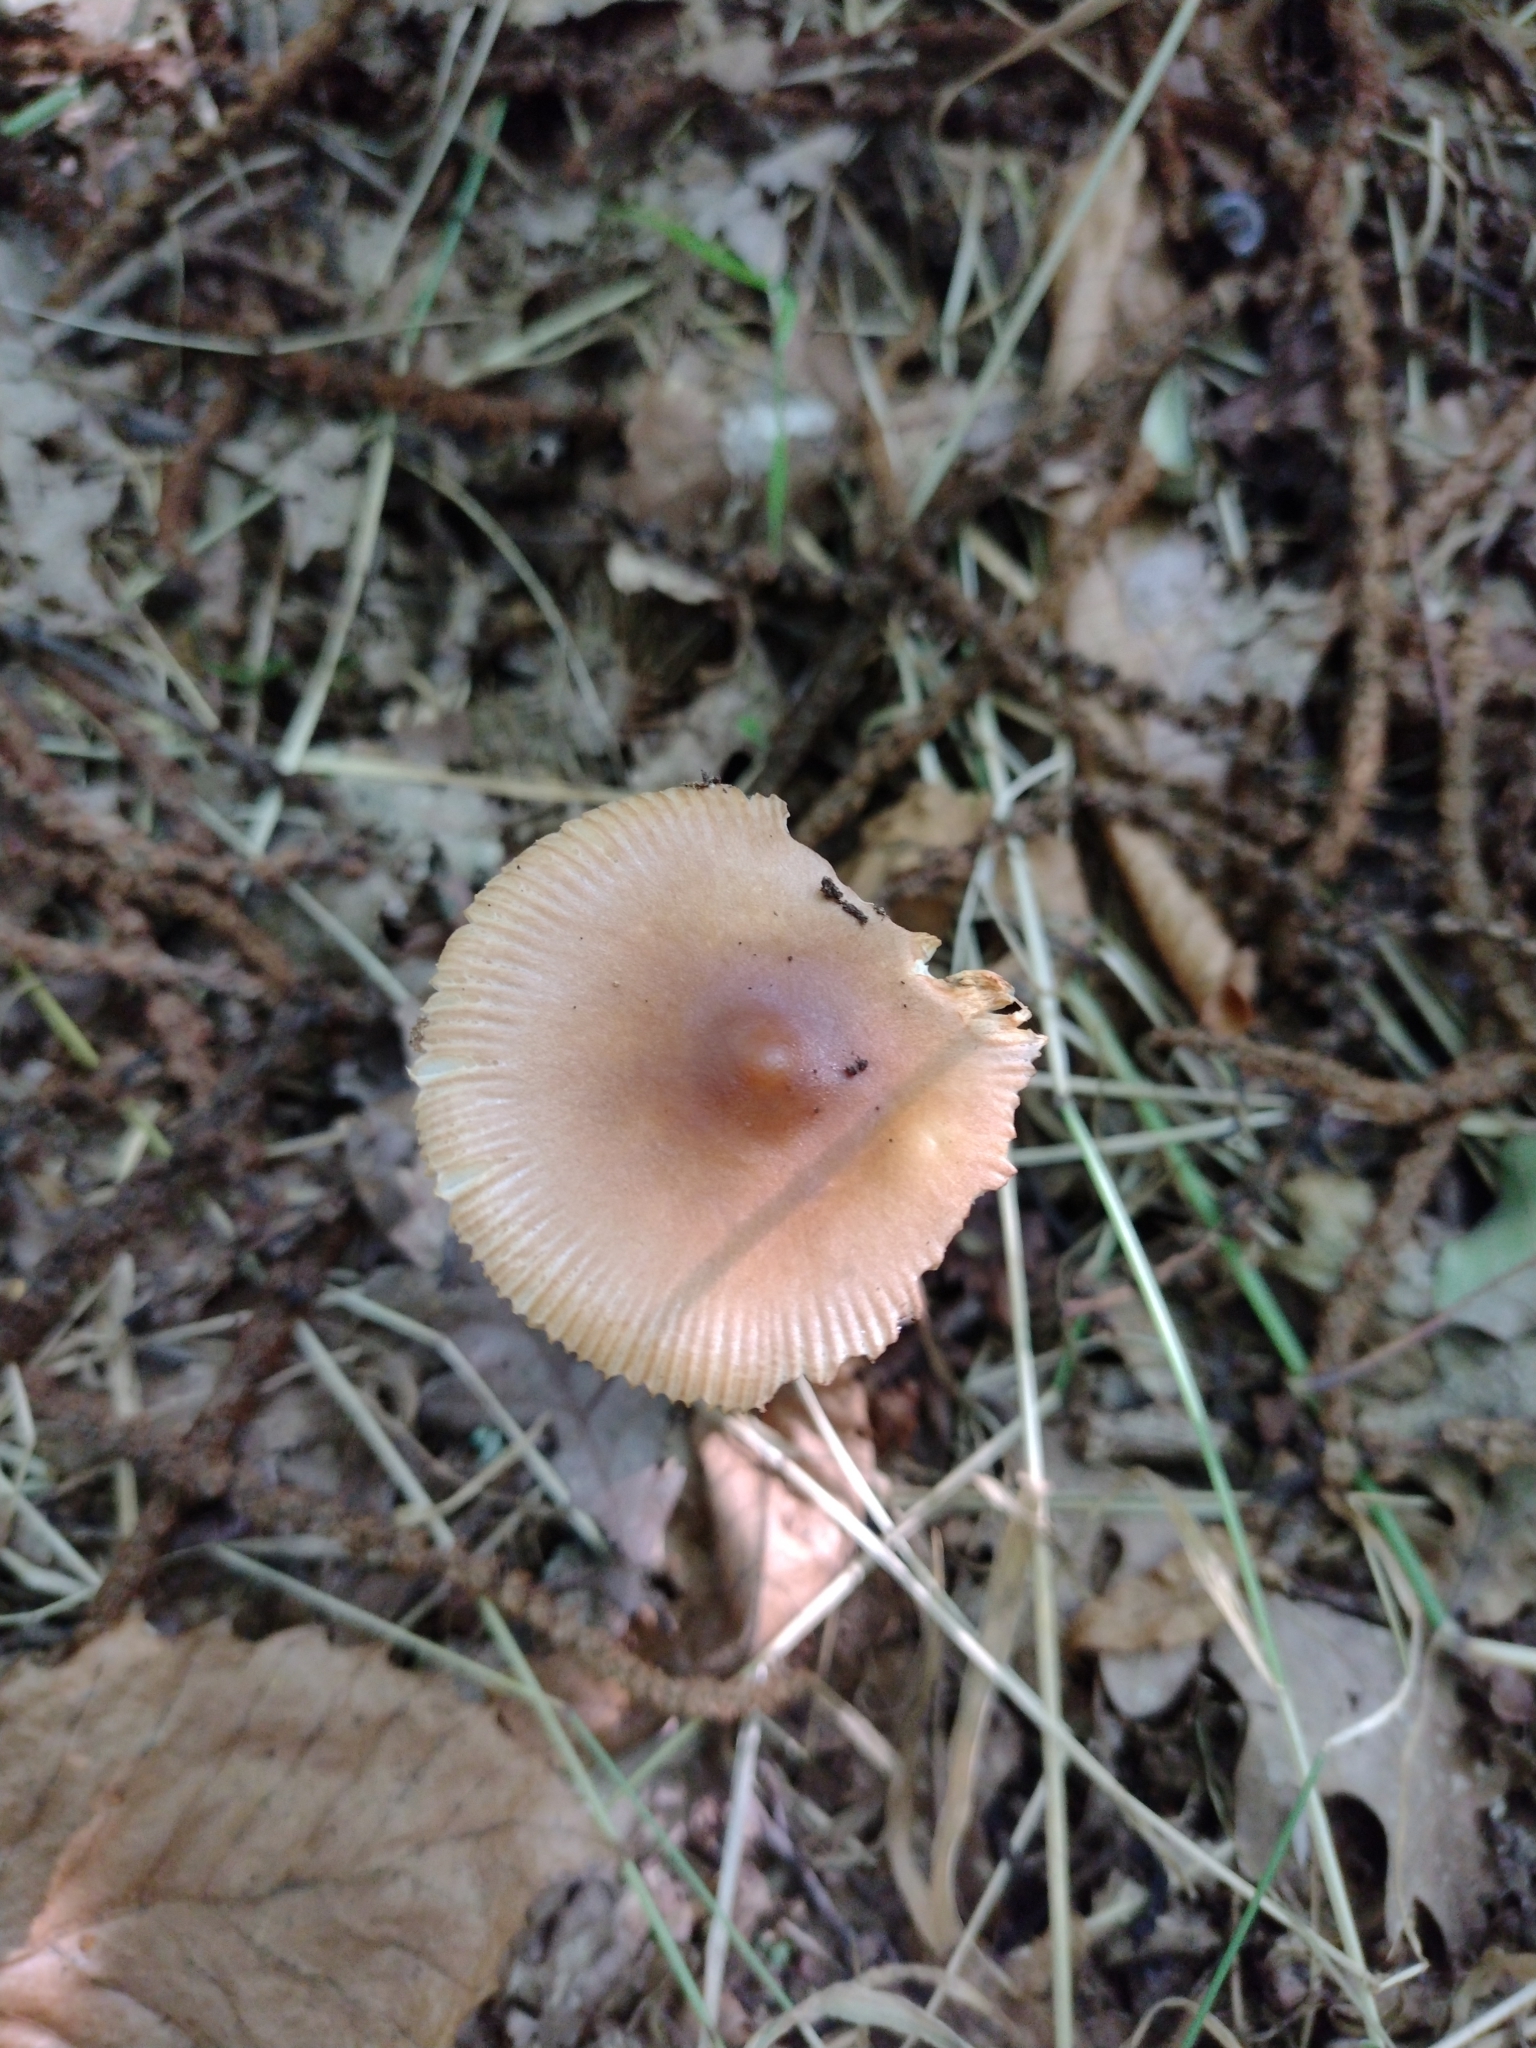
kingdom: Fungi
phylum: Basidiomycota
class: Agaricomycetes
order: Agaricales
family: Amanitaceae
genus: Amanita
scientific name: Amanita fulva
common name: Tawny grisette
